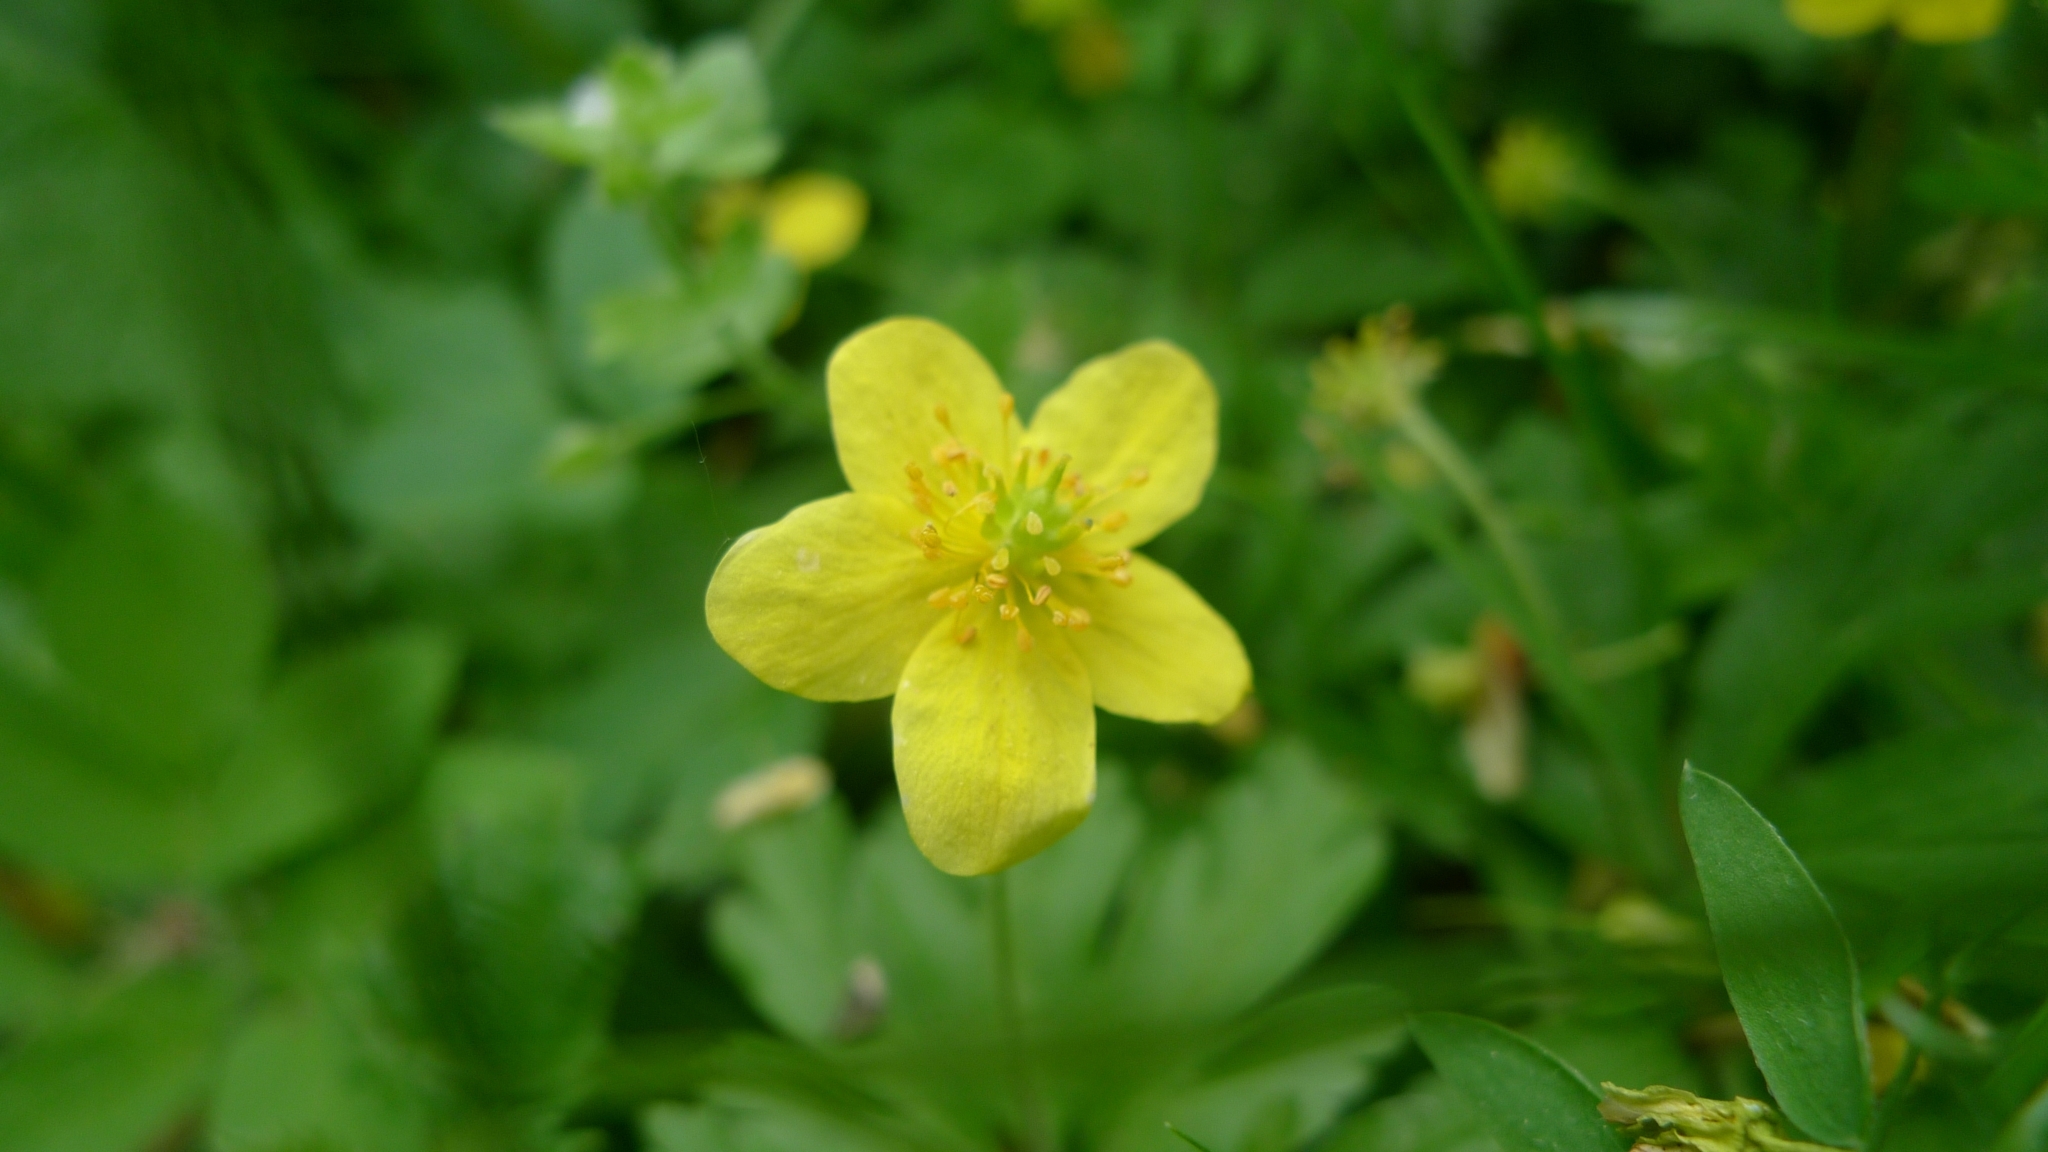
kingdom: Plantae
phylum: Tracheophyta
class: Magnoliopsida
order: Ranunculales
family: Ranunculaceae
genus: Anemone
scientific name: Anemone ranunculoides
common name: Yellow anemone
